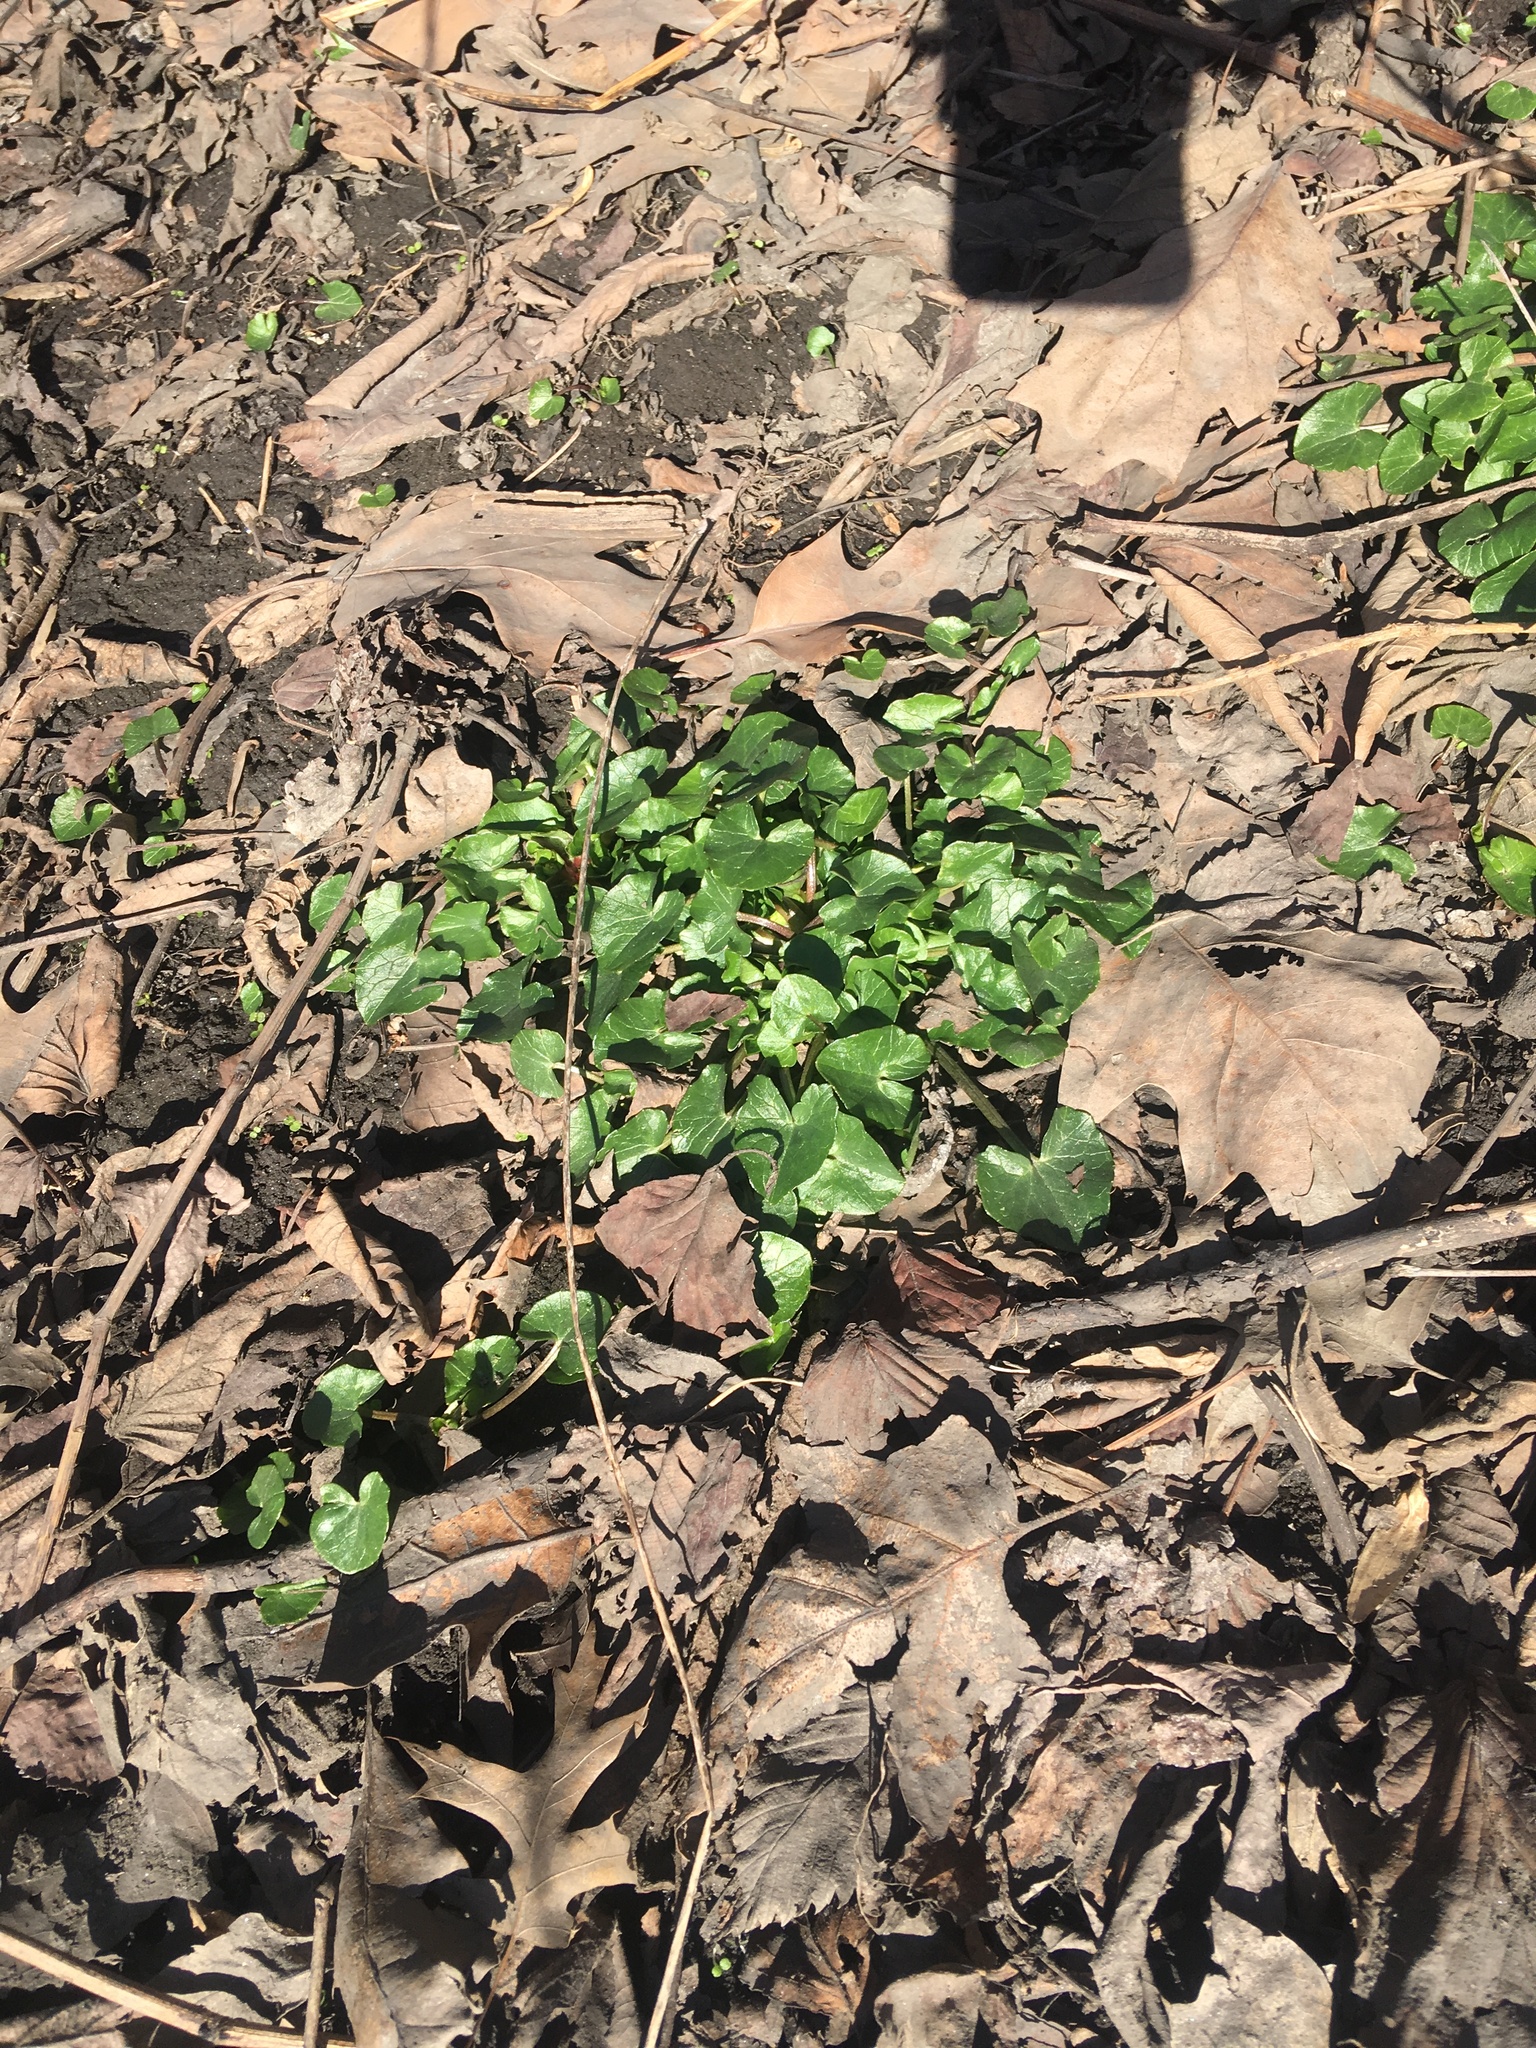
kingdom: Plantae
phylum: Tracheophyta
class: Magnoliopsida
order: Ranunculales
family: Ranunculaceae
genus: Ficaria
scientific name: Ficaria verna
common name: Lesser celandine
